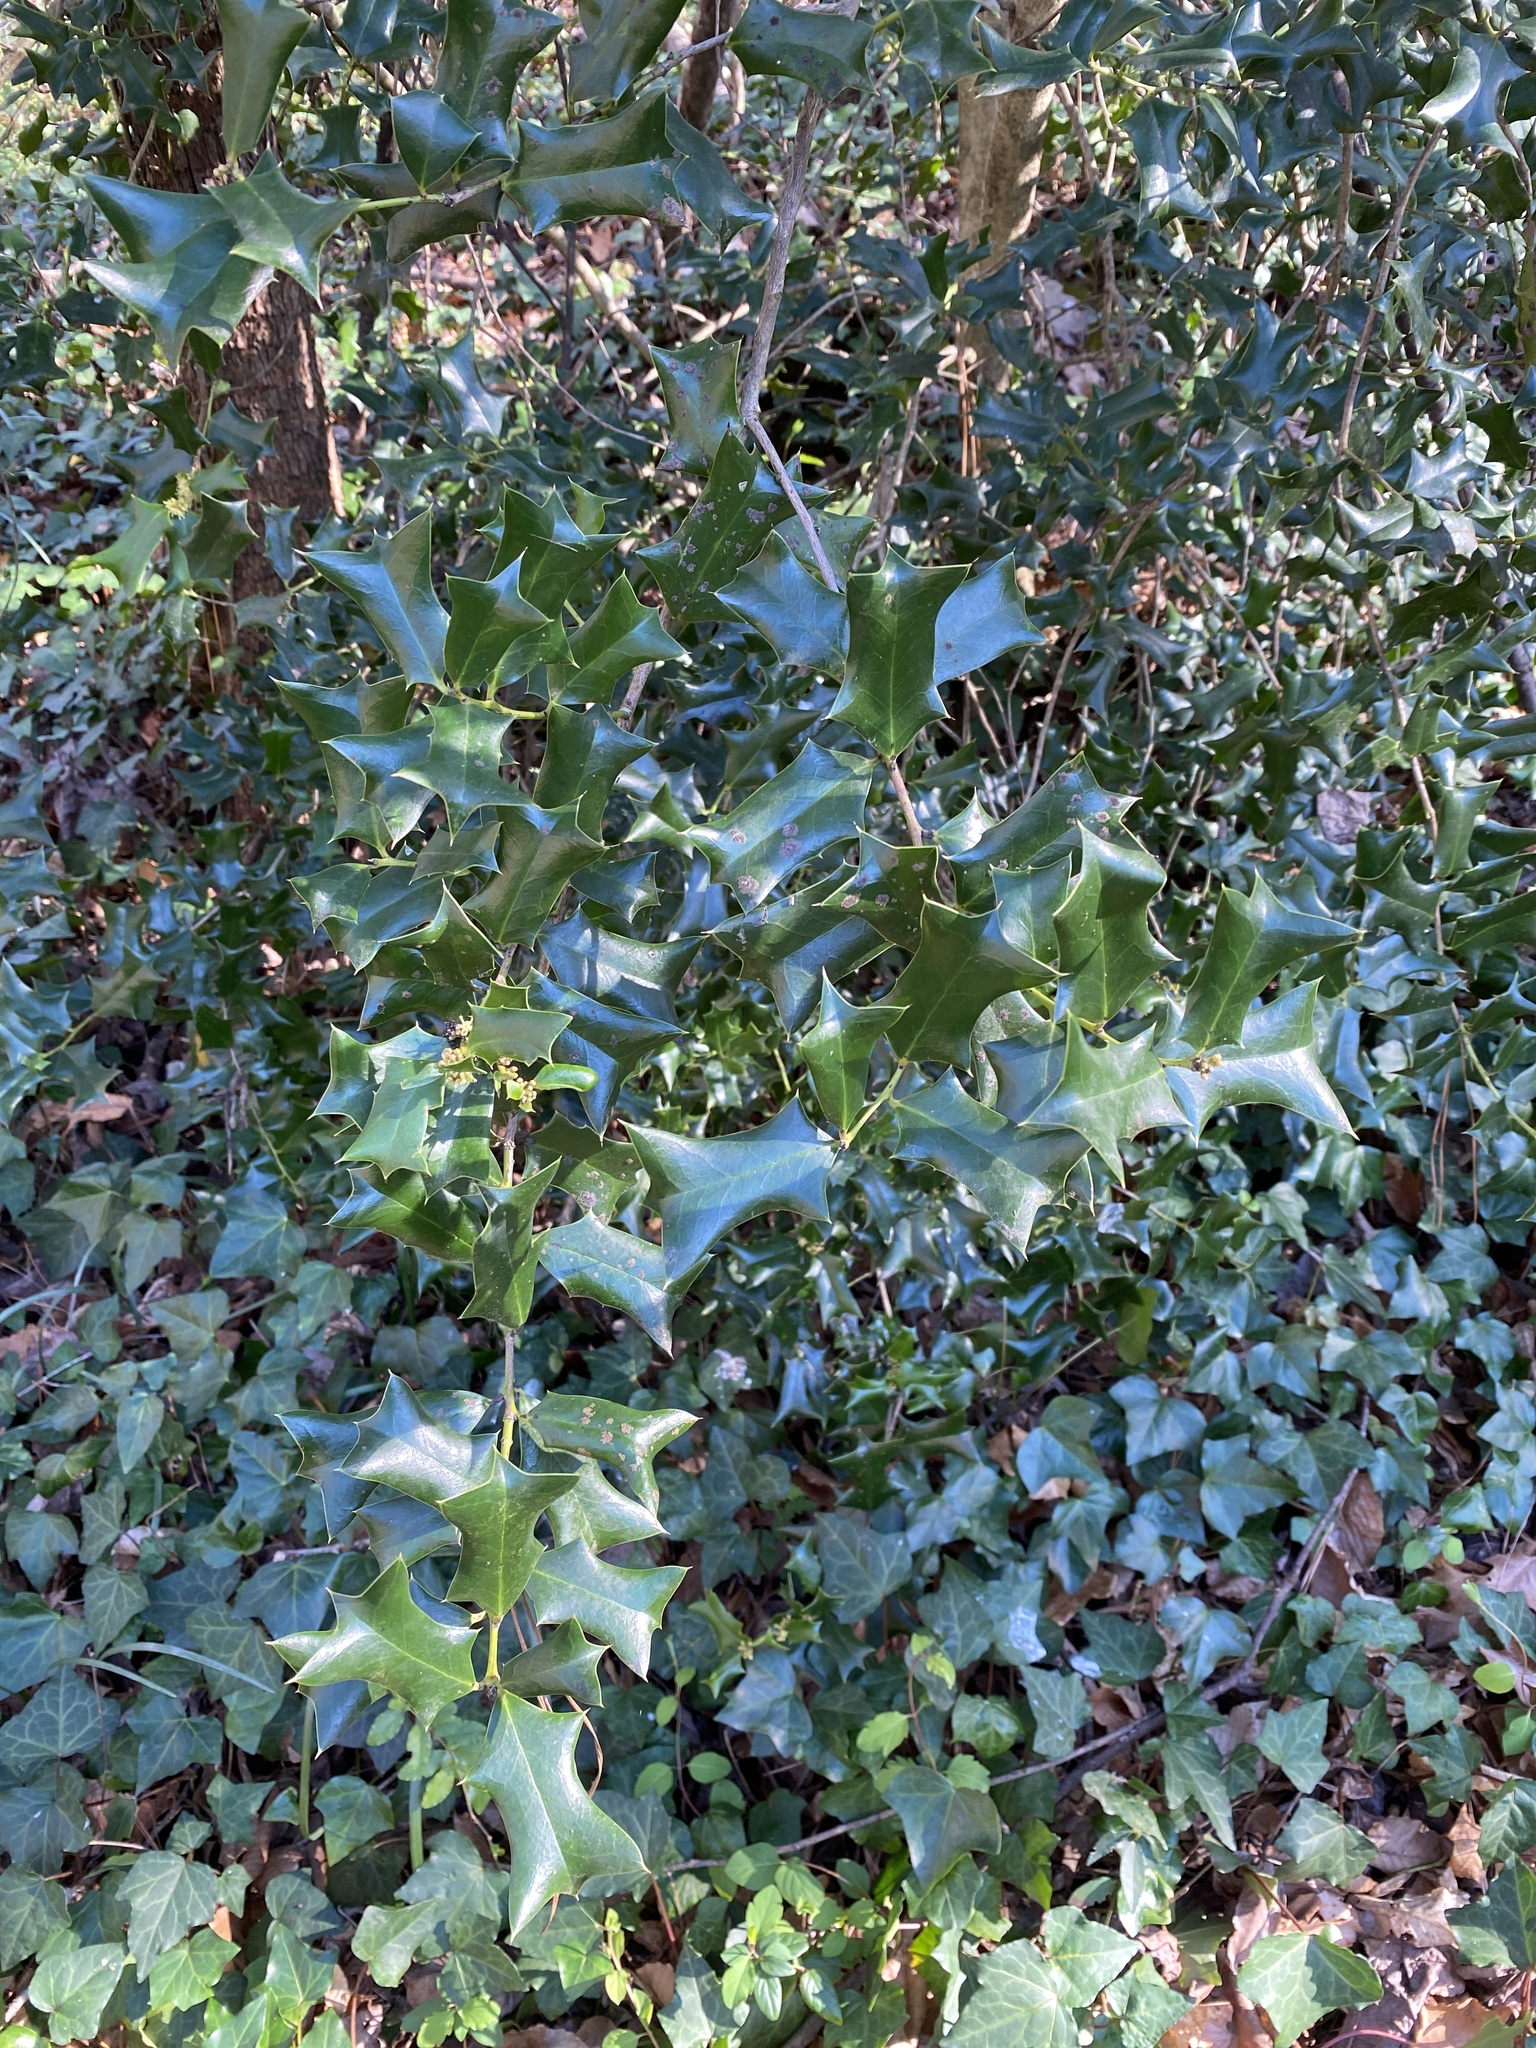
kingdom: Plantae
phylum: Tracheophyta
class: Magnoliopsida
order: Aquifoliales
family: Aquifoliaceae
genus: Ilex
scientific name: Ilex cornuta
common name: Chinese holly
